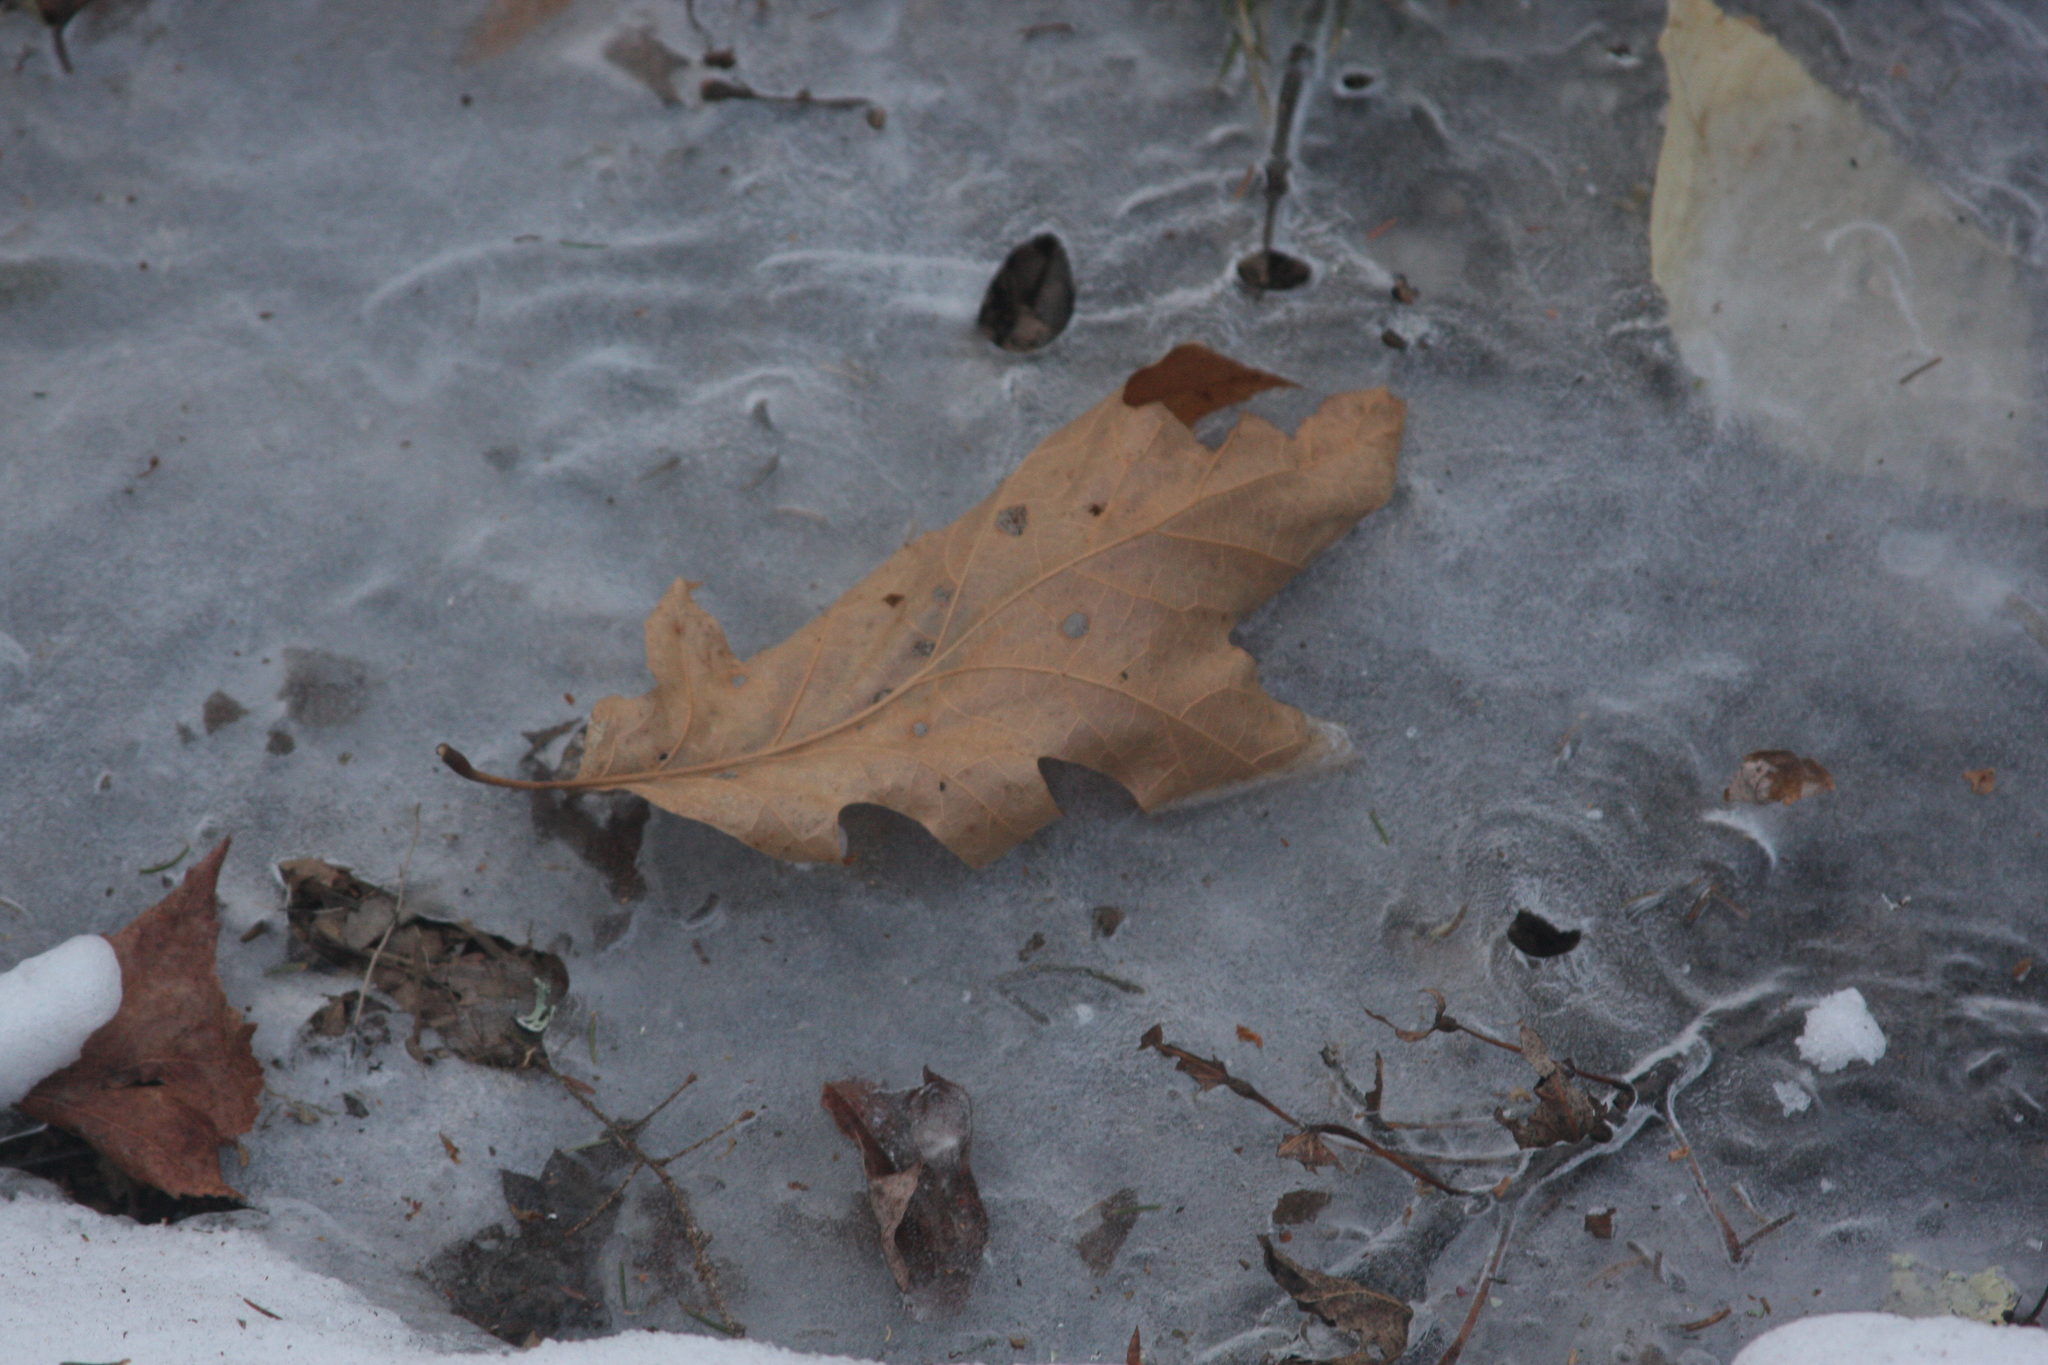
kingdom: Plantae
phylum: Tracheophyta
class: Magnoliopsida
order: Fagales
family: Fagaceae
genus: Quercus
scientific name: Quercus rubra
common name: Red oak
